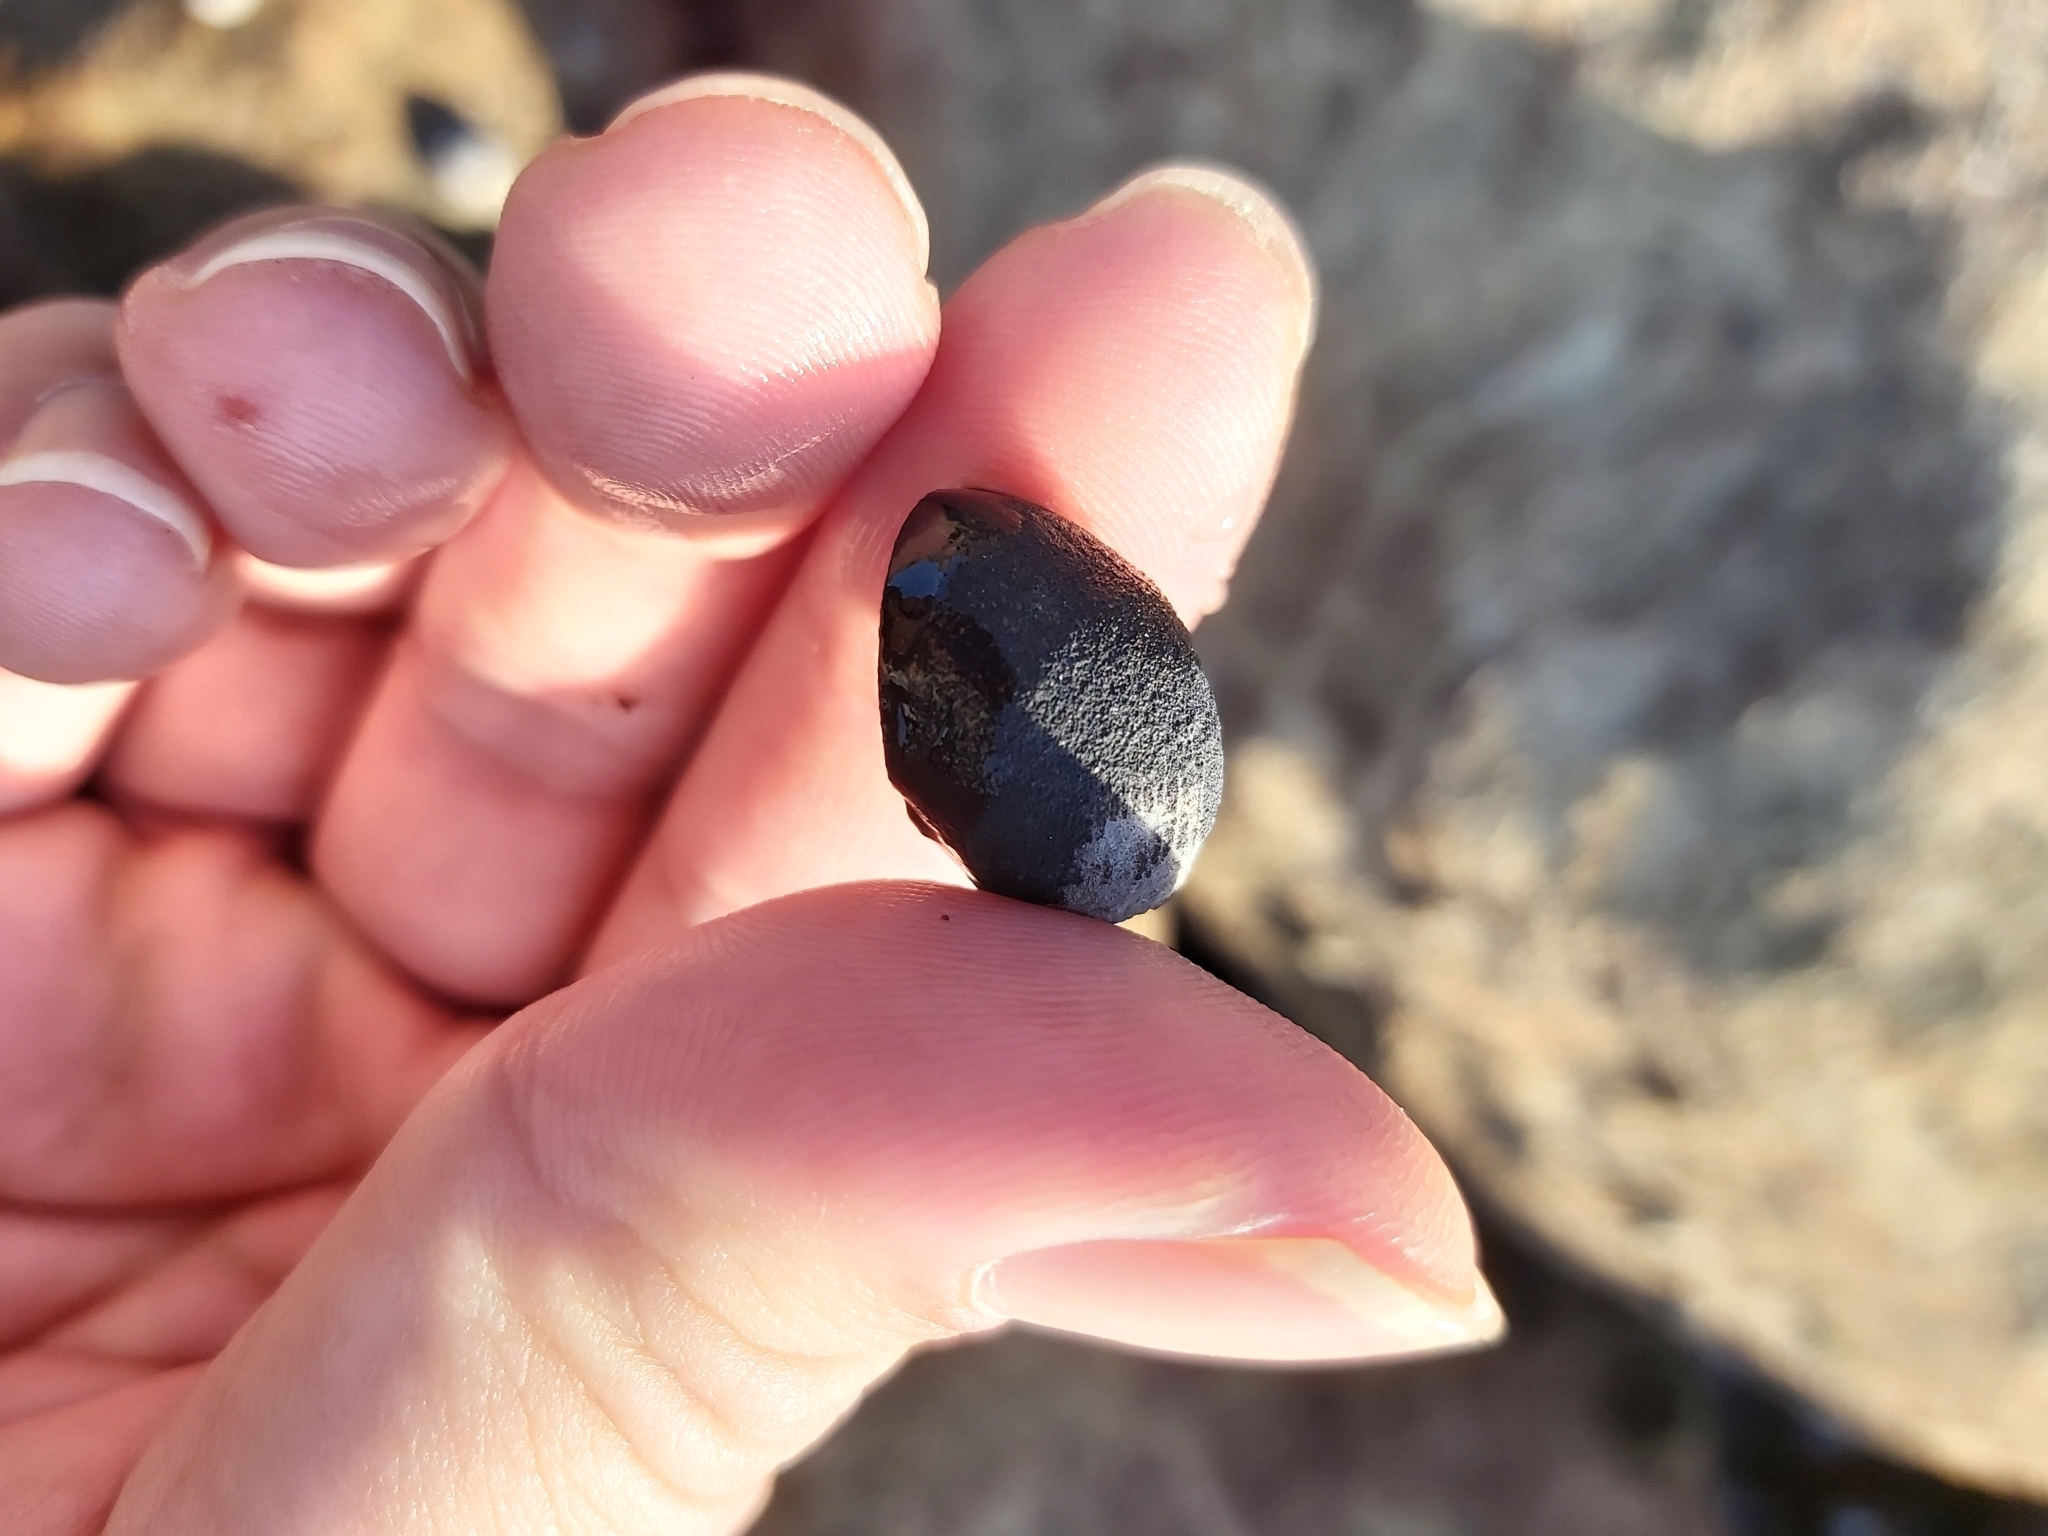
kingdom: Animalia
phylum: Mollusca
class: Gastropoda
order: Cycloneritida
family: Neritidae
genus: Nerita
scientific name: Nerita melanotragus
